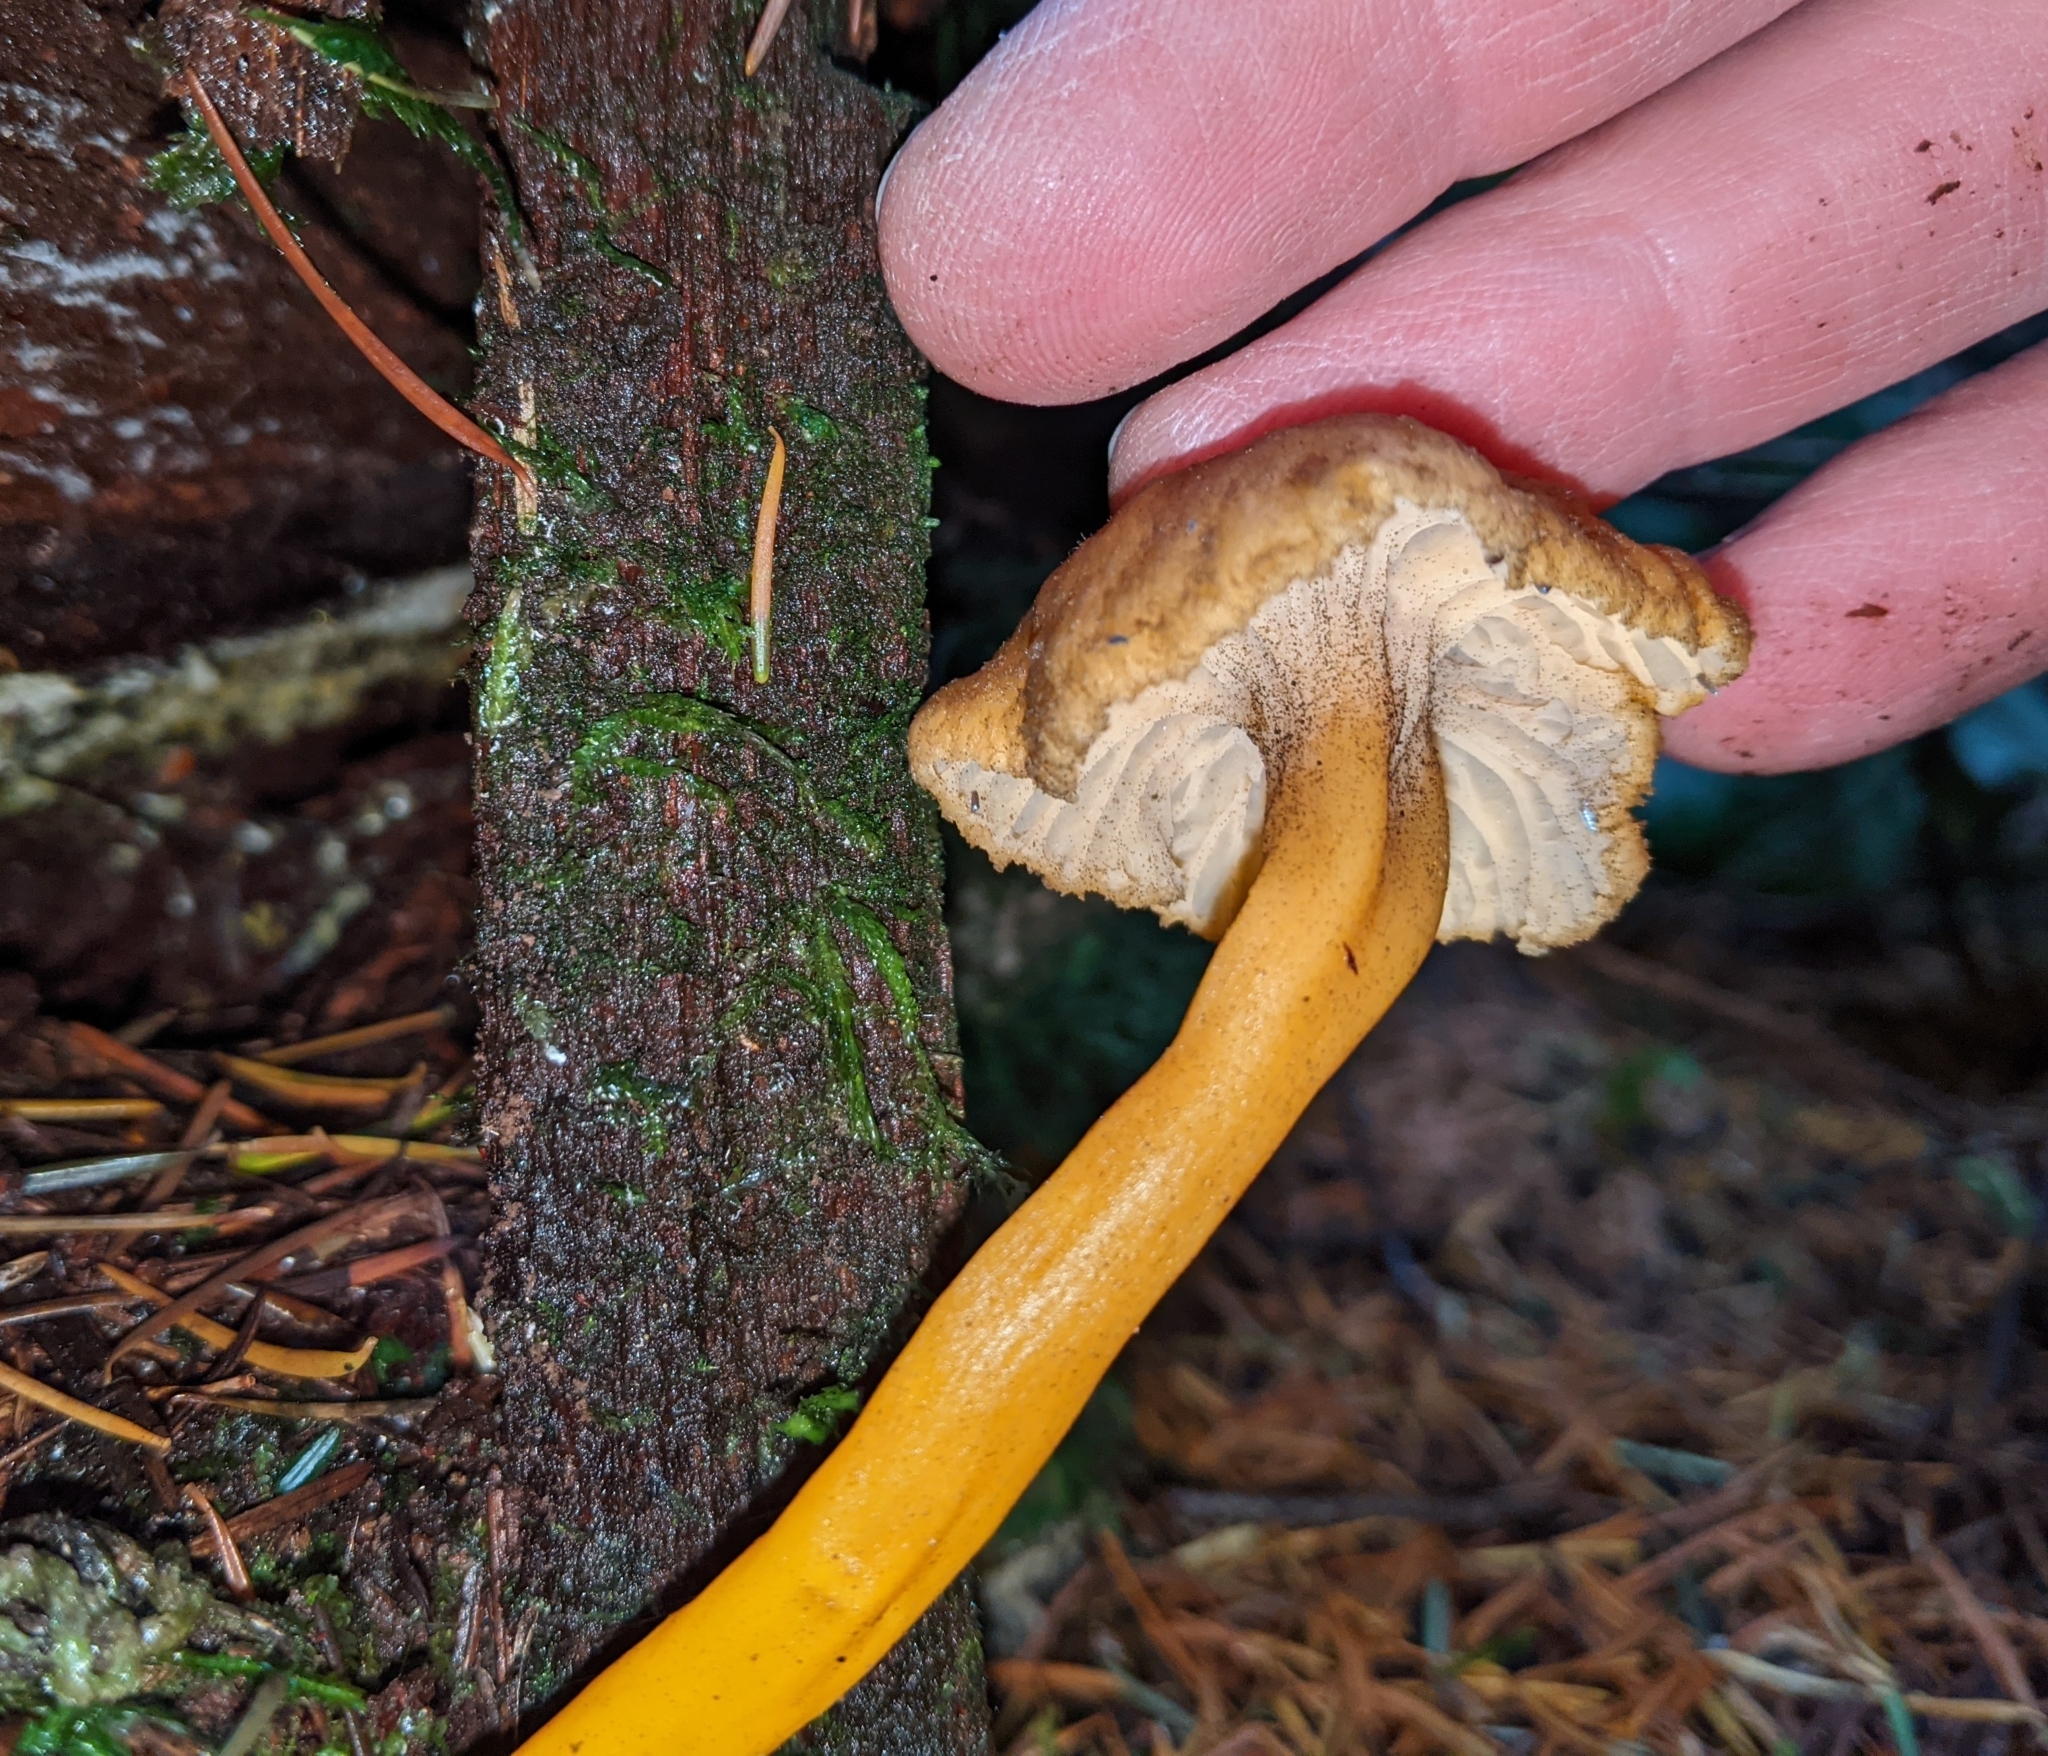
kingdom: Fungi
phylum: Basidiomycota
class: Agaricomycetes
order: Cantharellales
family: Hydnaceae
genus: Craterellus
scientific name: Craterellus tubaeformis
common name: Yellowfoot
